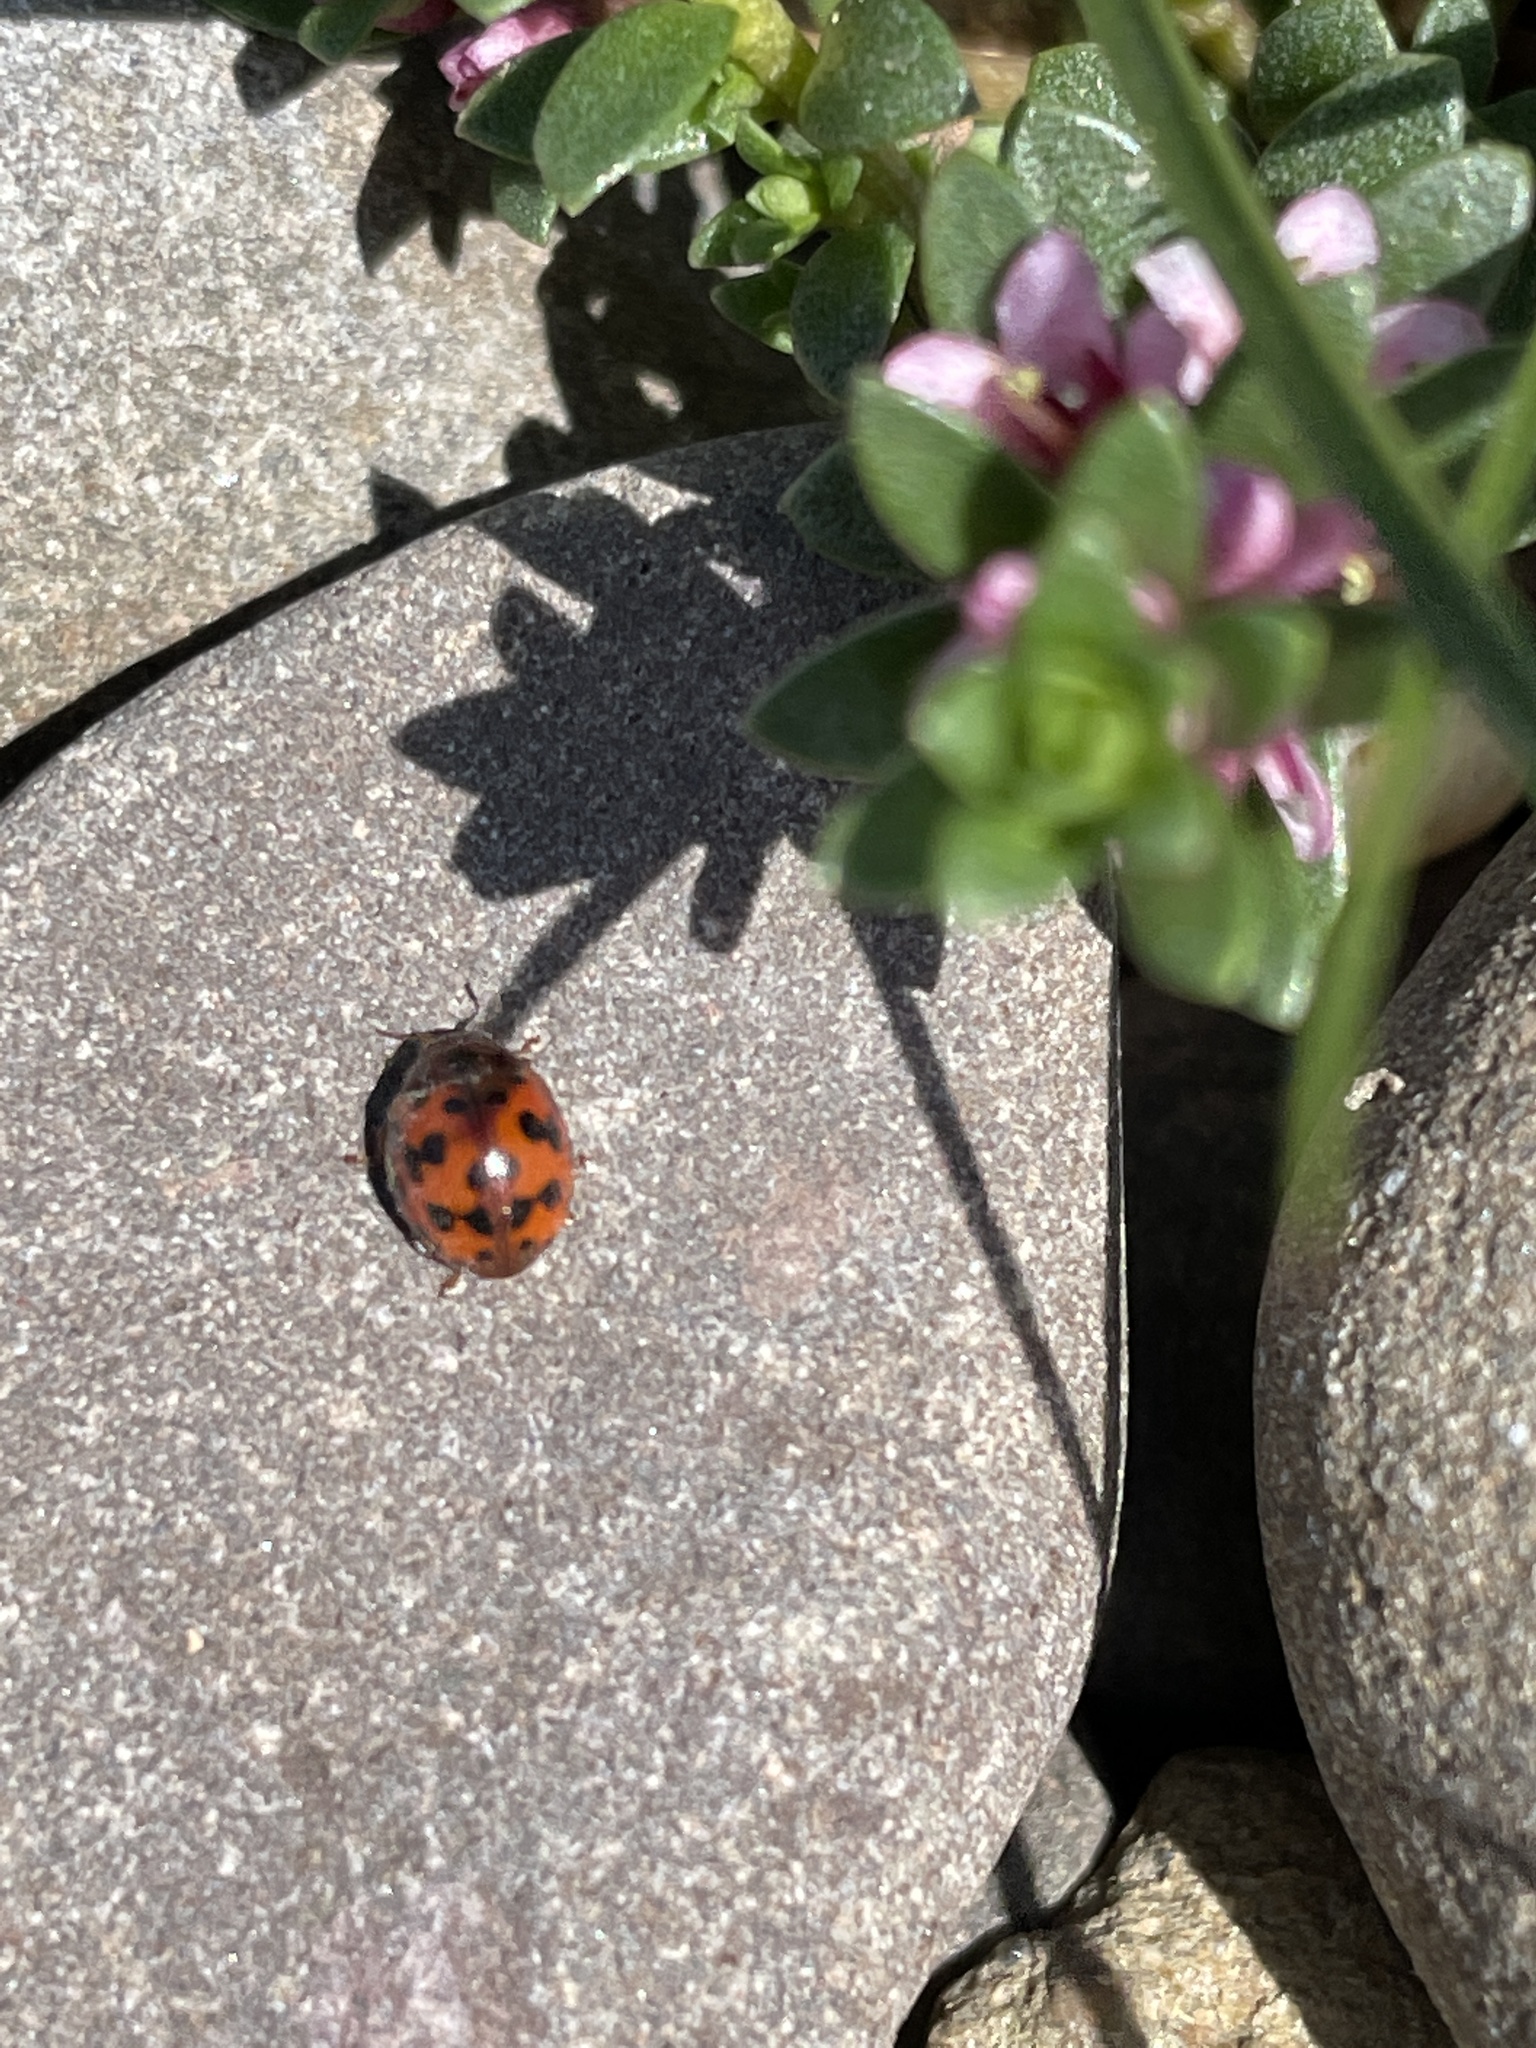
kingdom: Animalia
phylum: Arthropoda
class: Insecta
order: Coleoptera
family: Coccinellidae
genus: Subcoccinella
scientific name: Subcoccinella vigintiquatuorpunctata
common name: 24-spot ladybird
